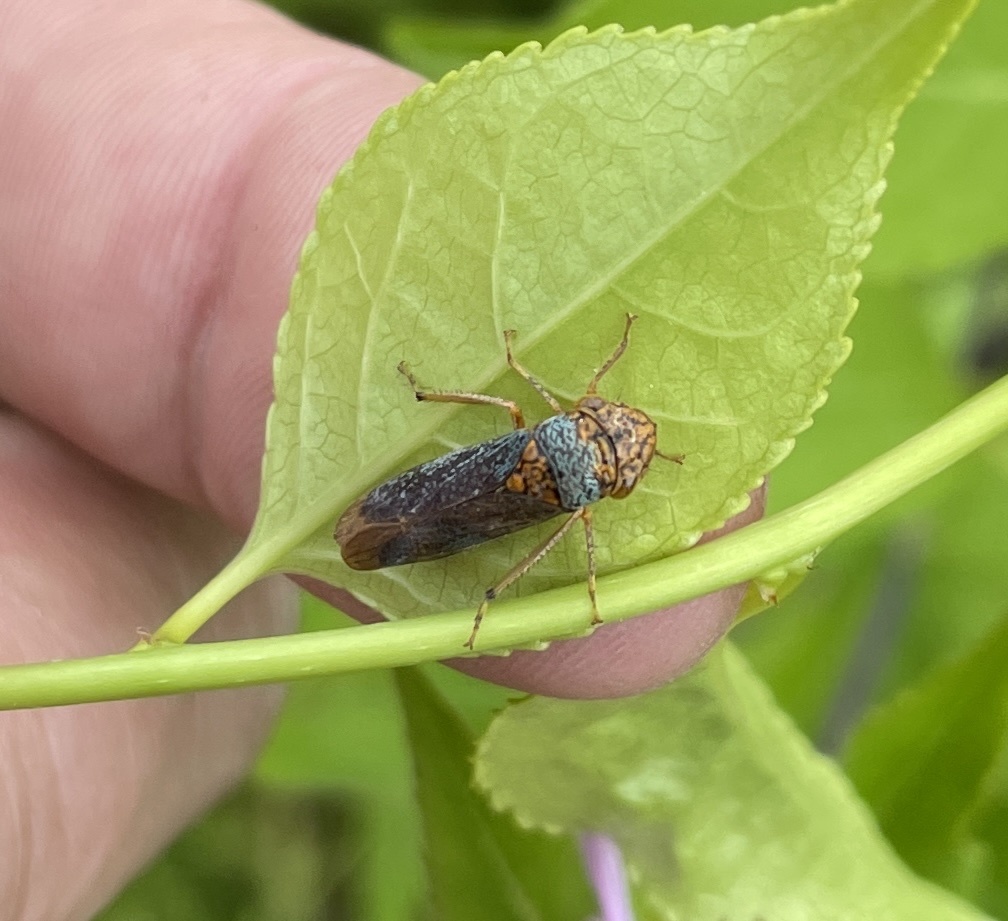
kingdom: Animalia
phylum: Arthropoda
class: Insecta
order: Hemiptera
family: Cicadellidae
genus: Oncometopia
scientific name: Oncometopia orbona
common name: Broad-headed sharpshooter
